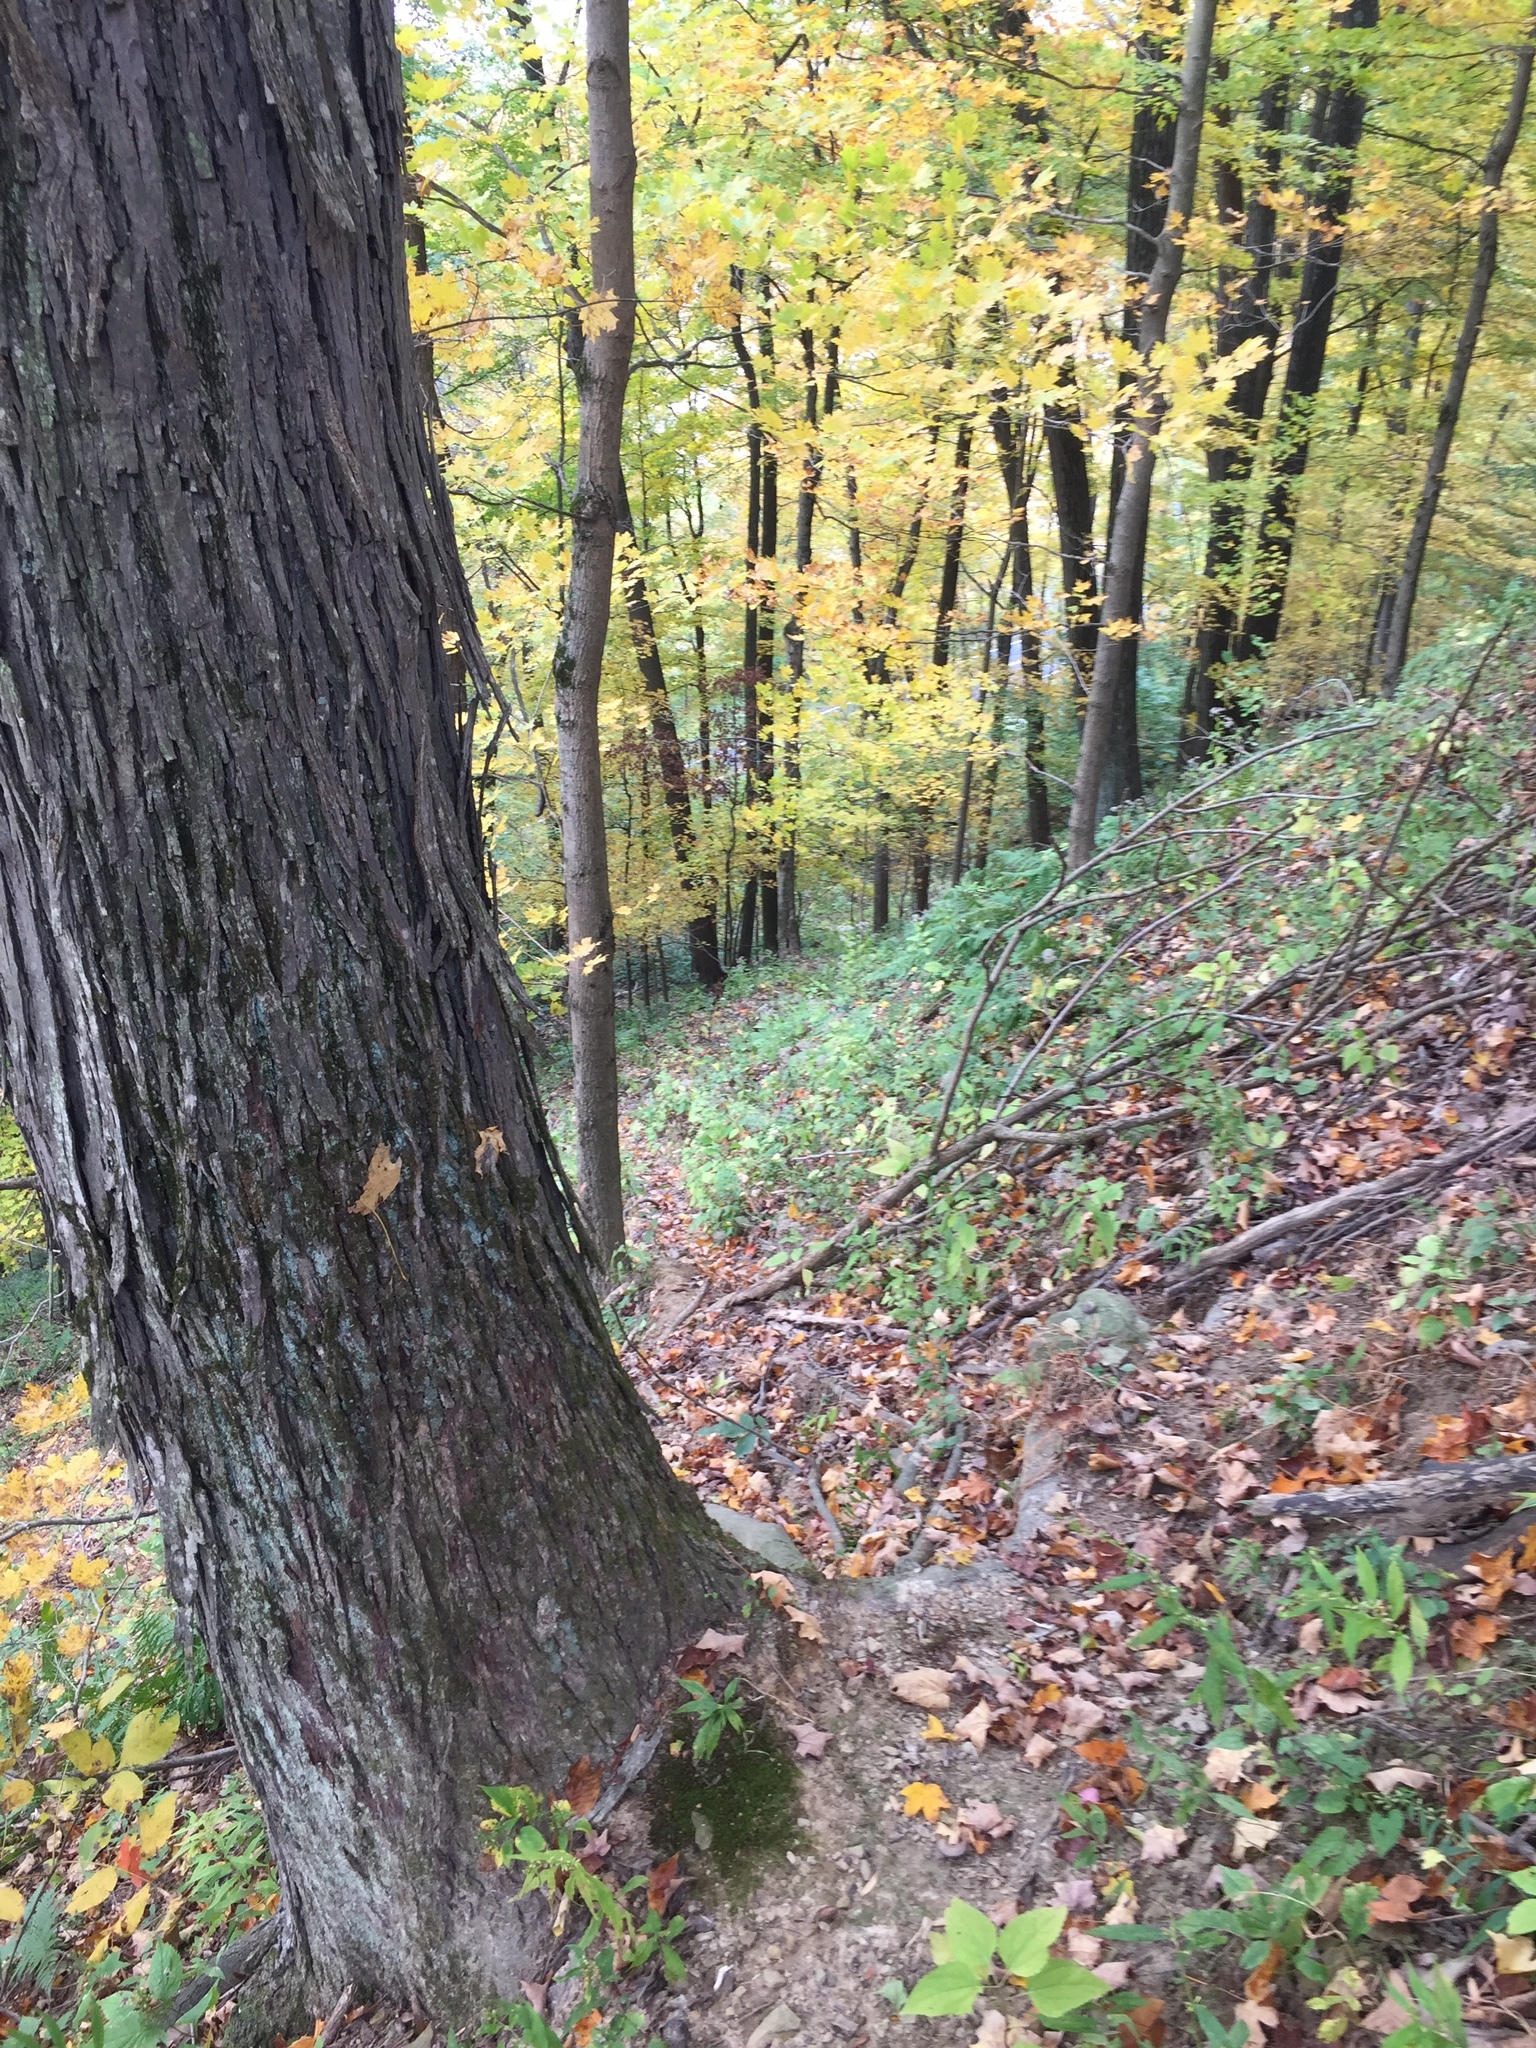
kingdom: Plantae
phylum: Tracheophyta
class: Magnoliopsida
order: Fagales
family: Juglandaceae
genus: Carya
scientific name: Carya ovata
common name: Shagbark hickory
